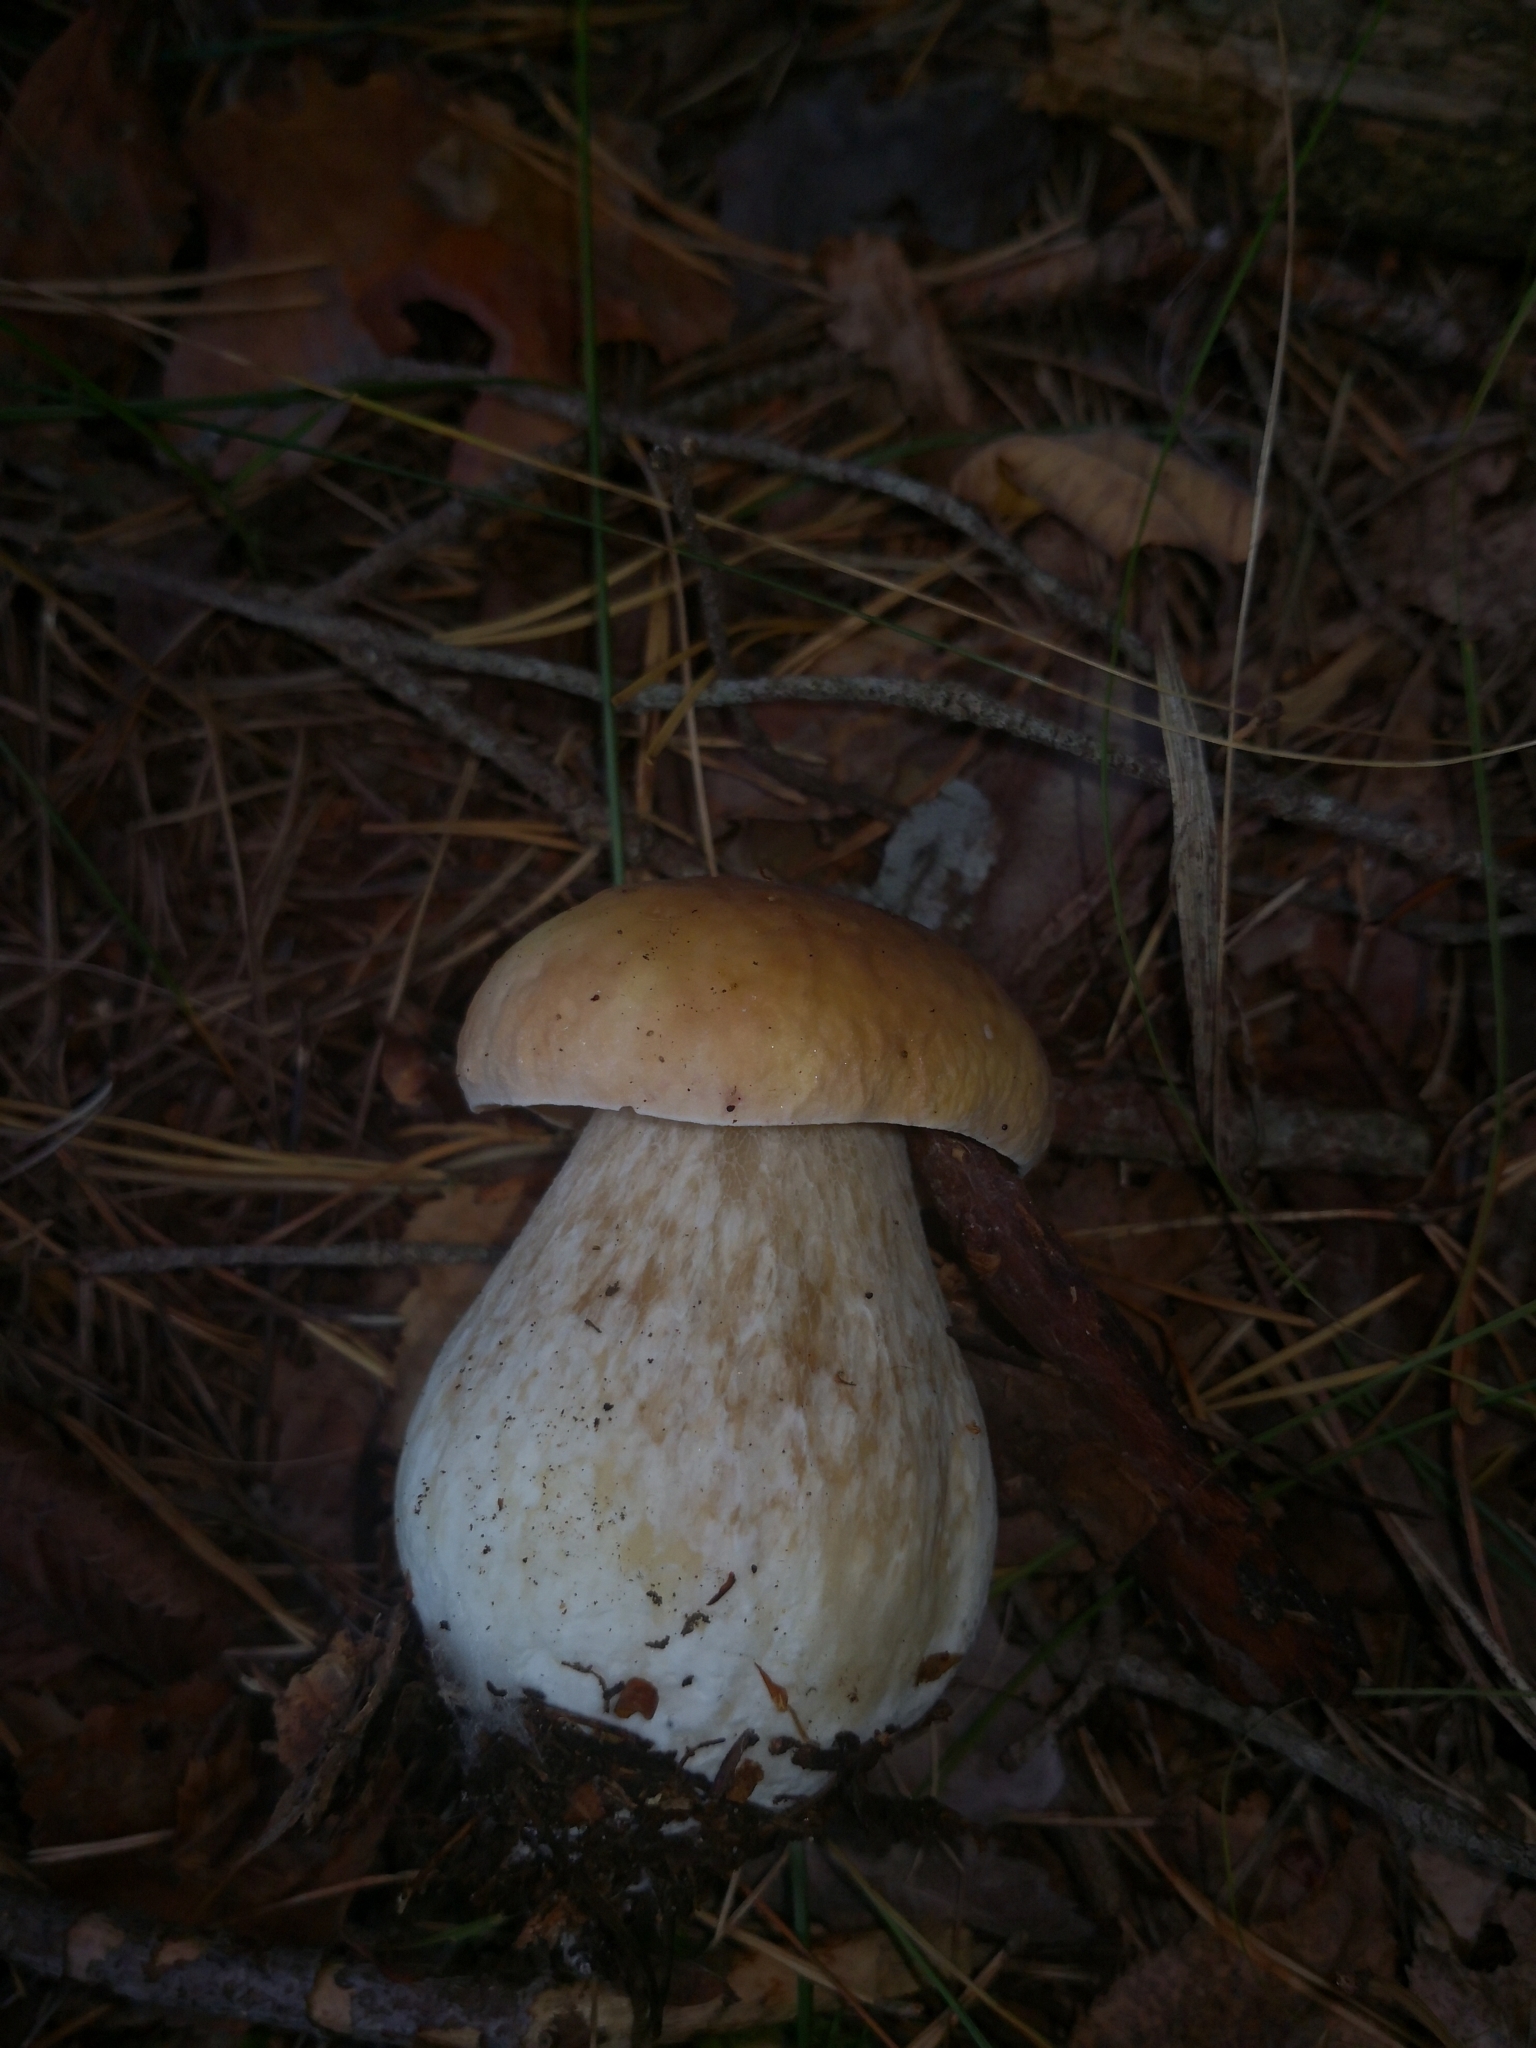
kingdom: Fungi
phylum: Basidiomycota
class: Agaricomycetes
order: Boletales
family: Boletaceae
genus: Boletus
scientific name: Boletus edulis
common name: Cep
